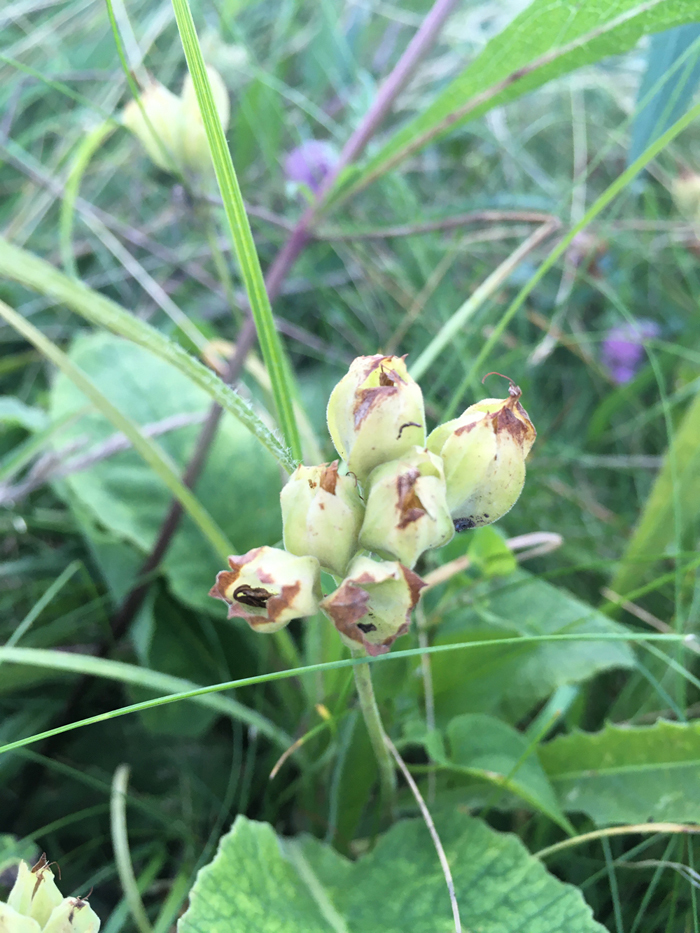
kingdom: Plantae
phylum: Tracheophyta
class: Magnoliopsida
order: Ericales
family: Primulaceae
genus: Primula
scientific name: Primula veris
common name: Cowslip
